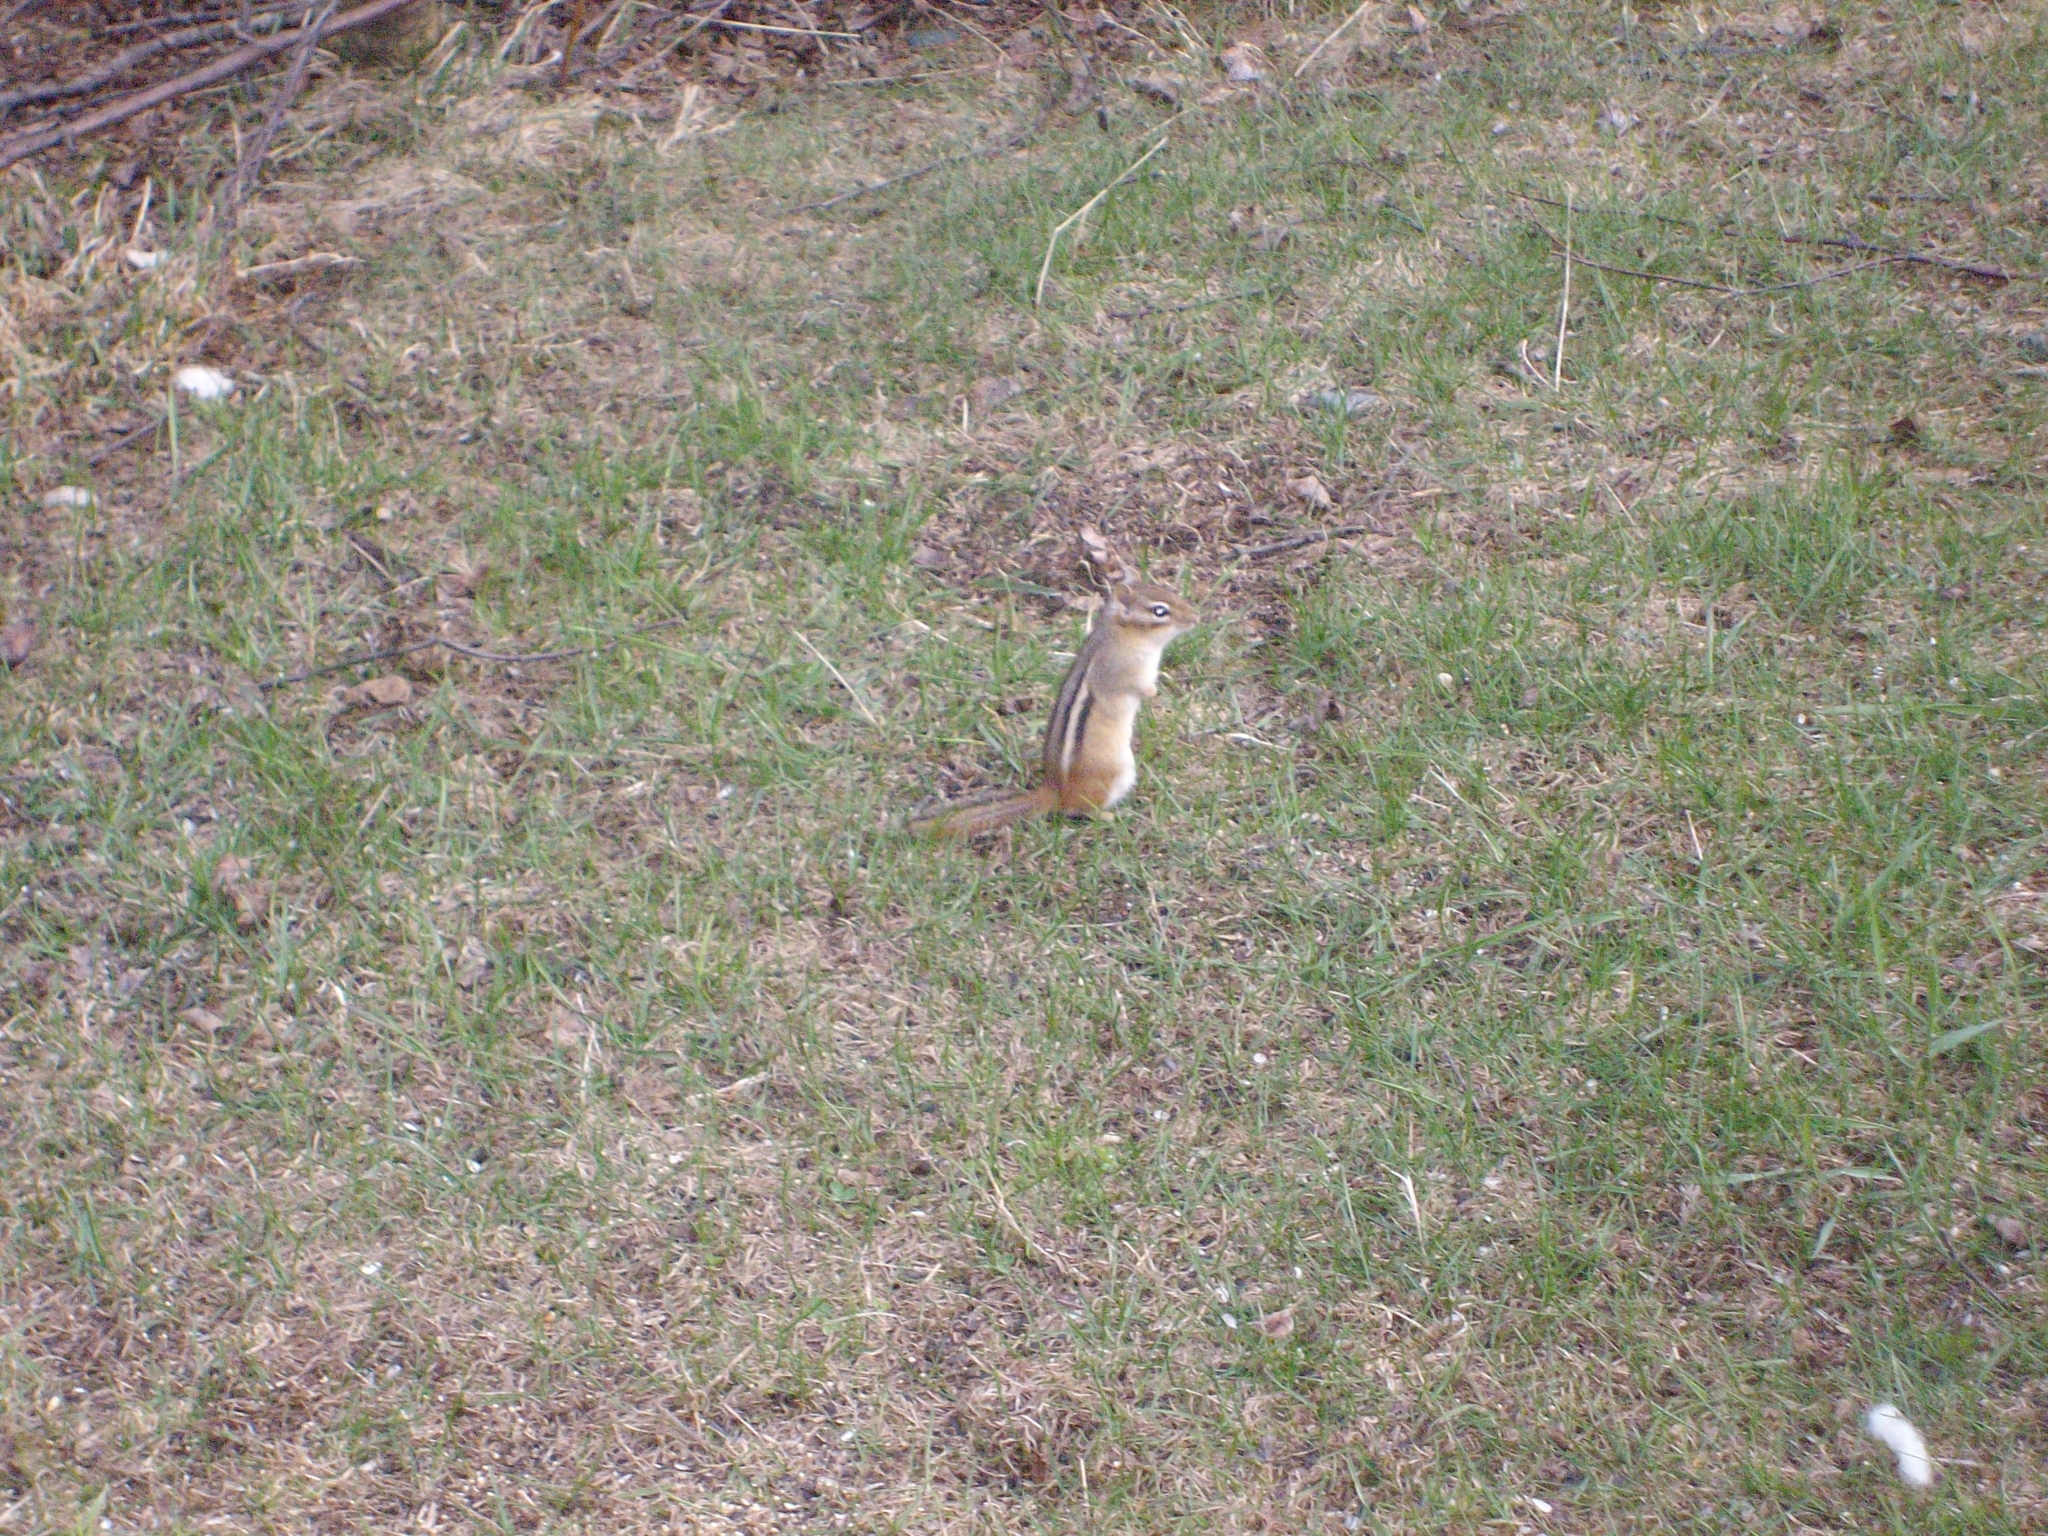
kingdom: Animalia
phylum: Chordata
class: Mammalia
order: Rodentia
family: Sciuridae
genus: Tamias
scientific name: Tamias striatus
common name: Eastern chipmunk
